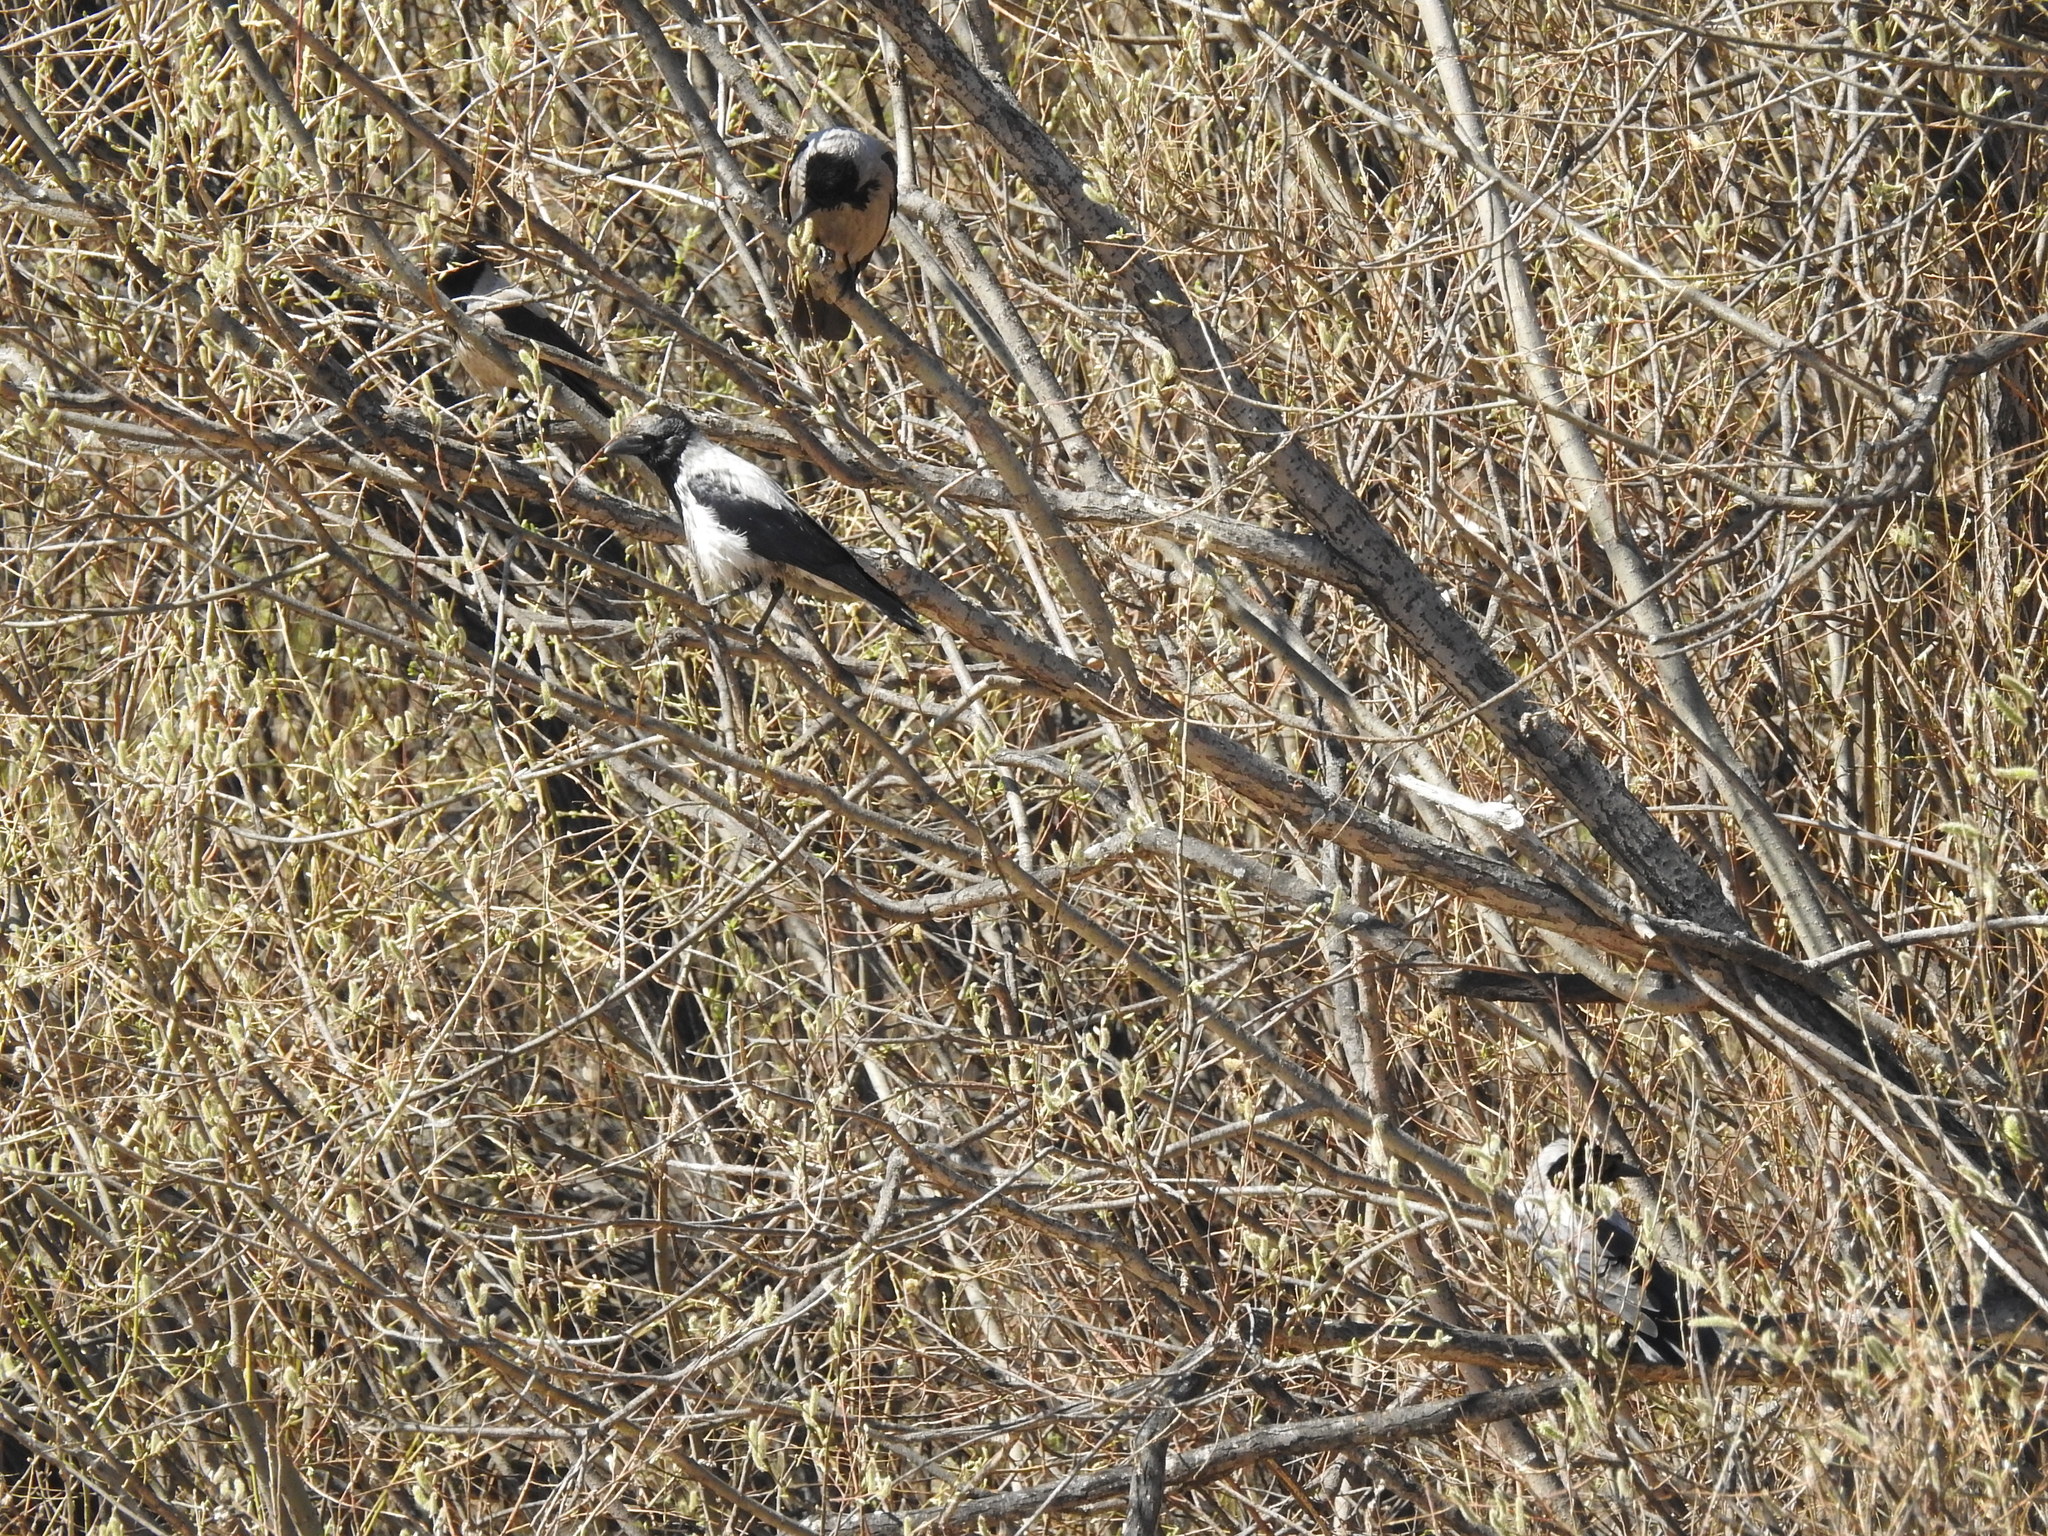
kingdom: Animalia
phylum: Chordata
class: Aves
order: Passeriformes
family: Corvidae
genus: Corvus
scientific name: Corvus cornix
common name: Hooded crow
